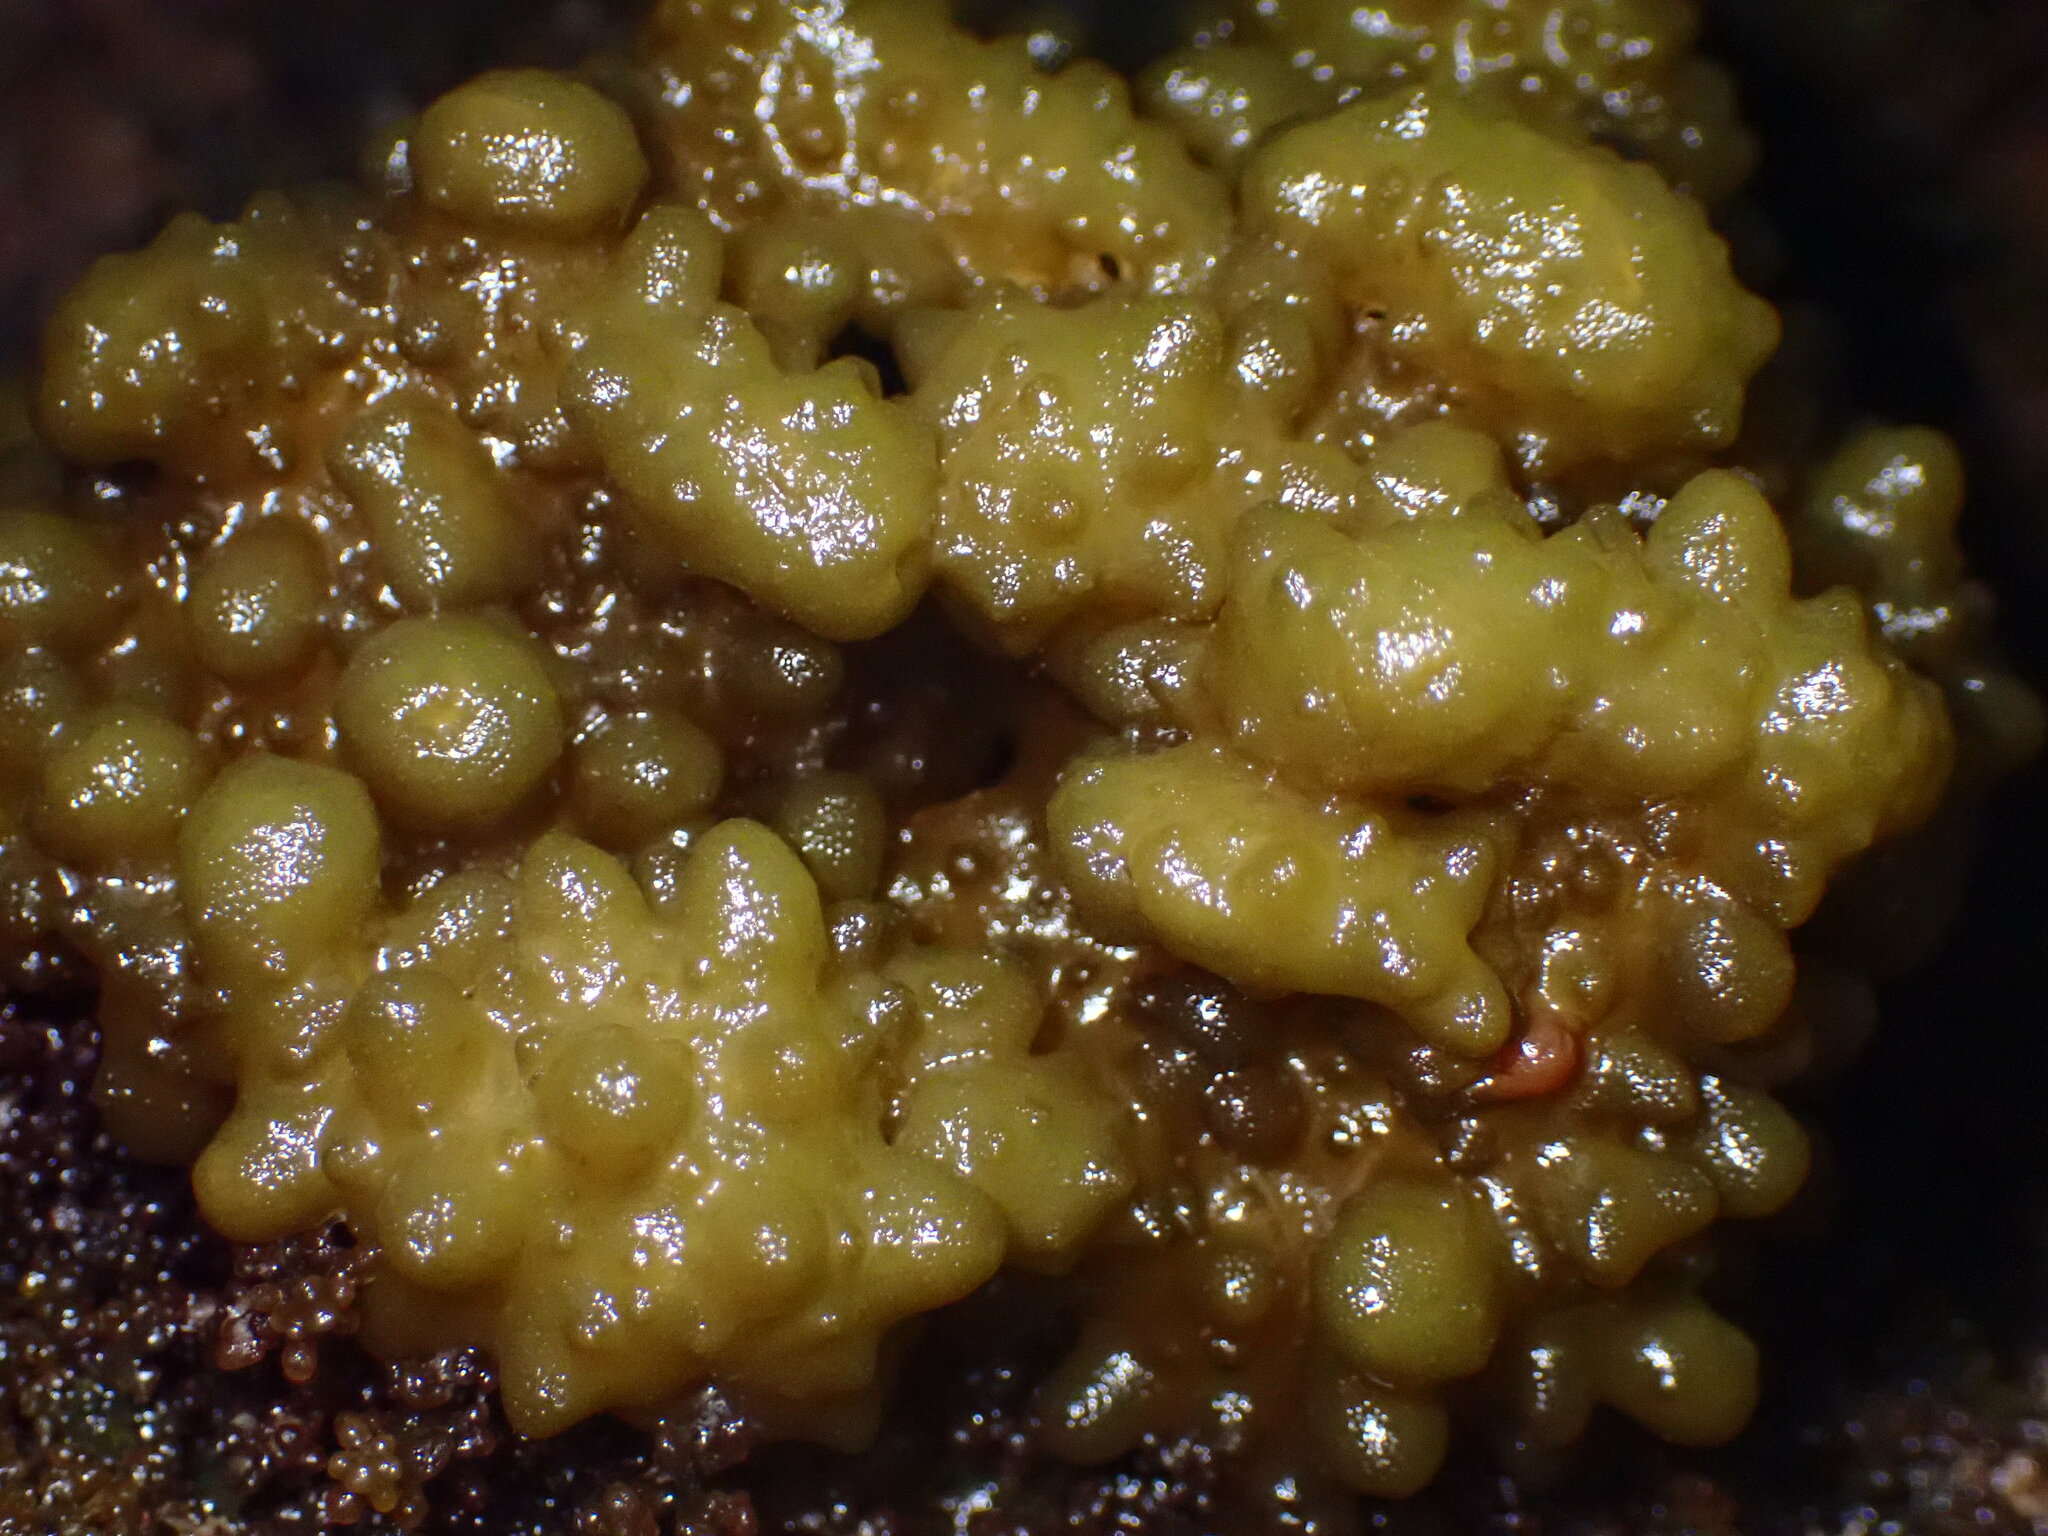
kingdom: Chromista
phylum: Ochrophyta
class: Phaeophyceae
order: Scytosiphonales
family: Scytosiphonaceae
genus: Colpomenia
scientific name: Colpomenia
